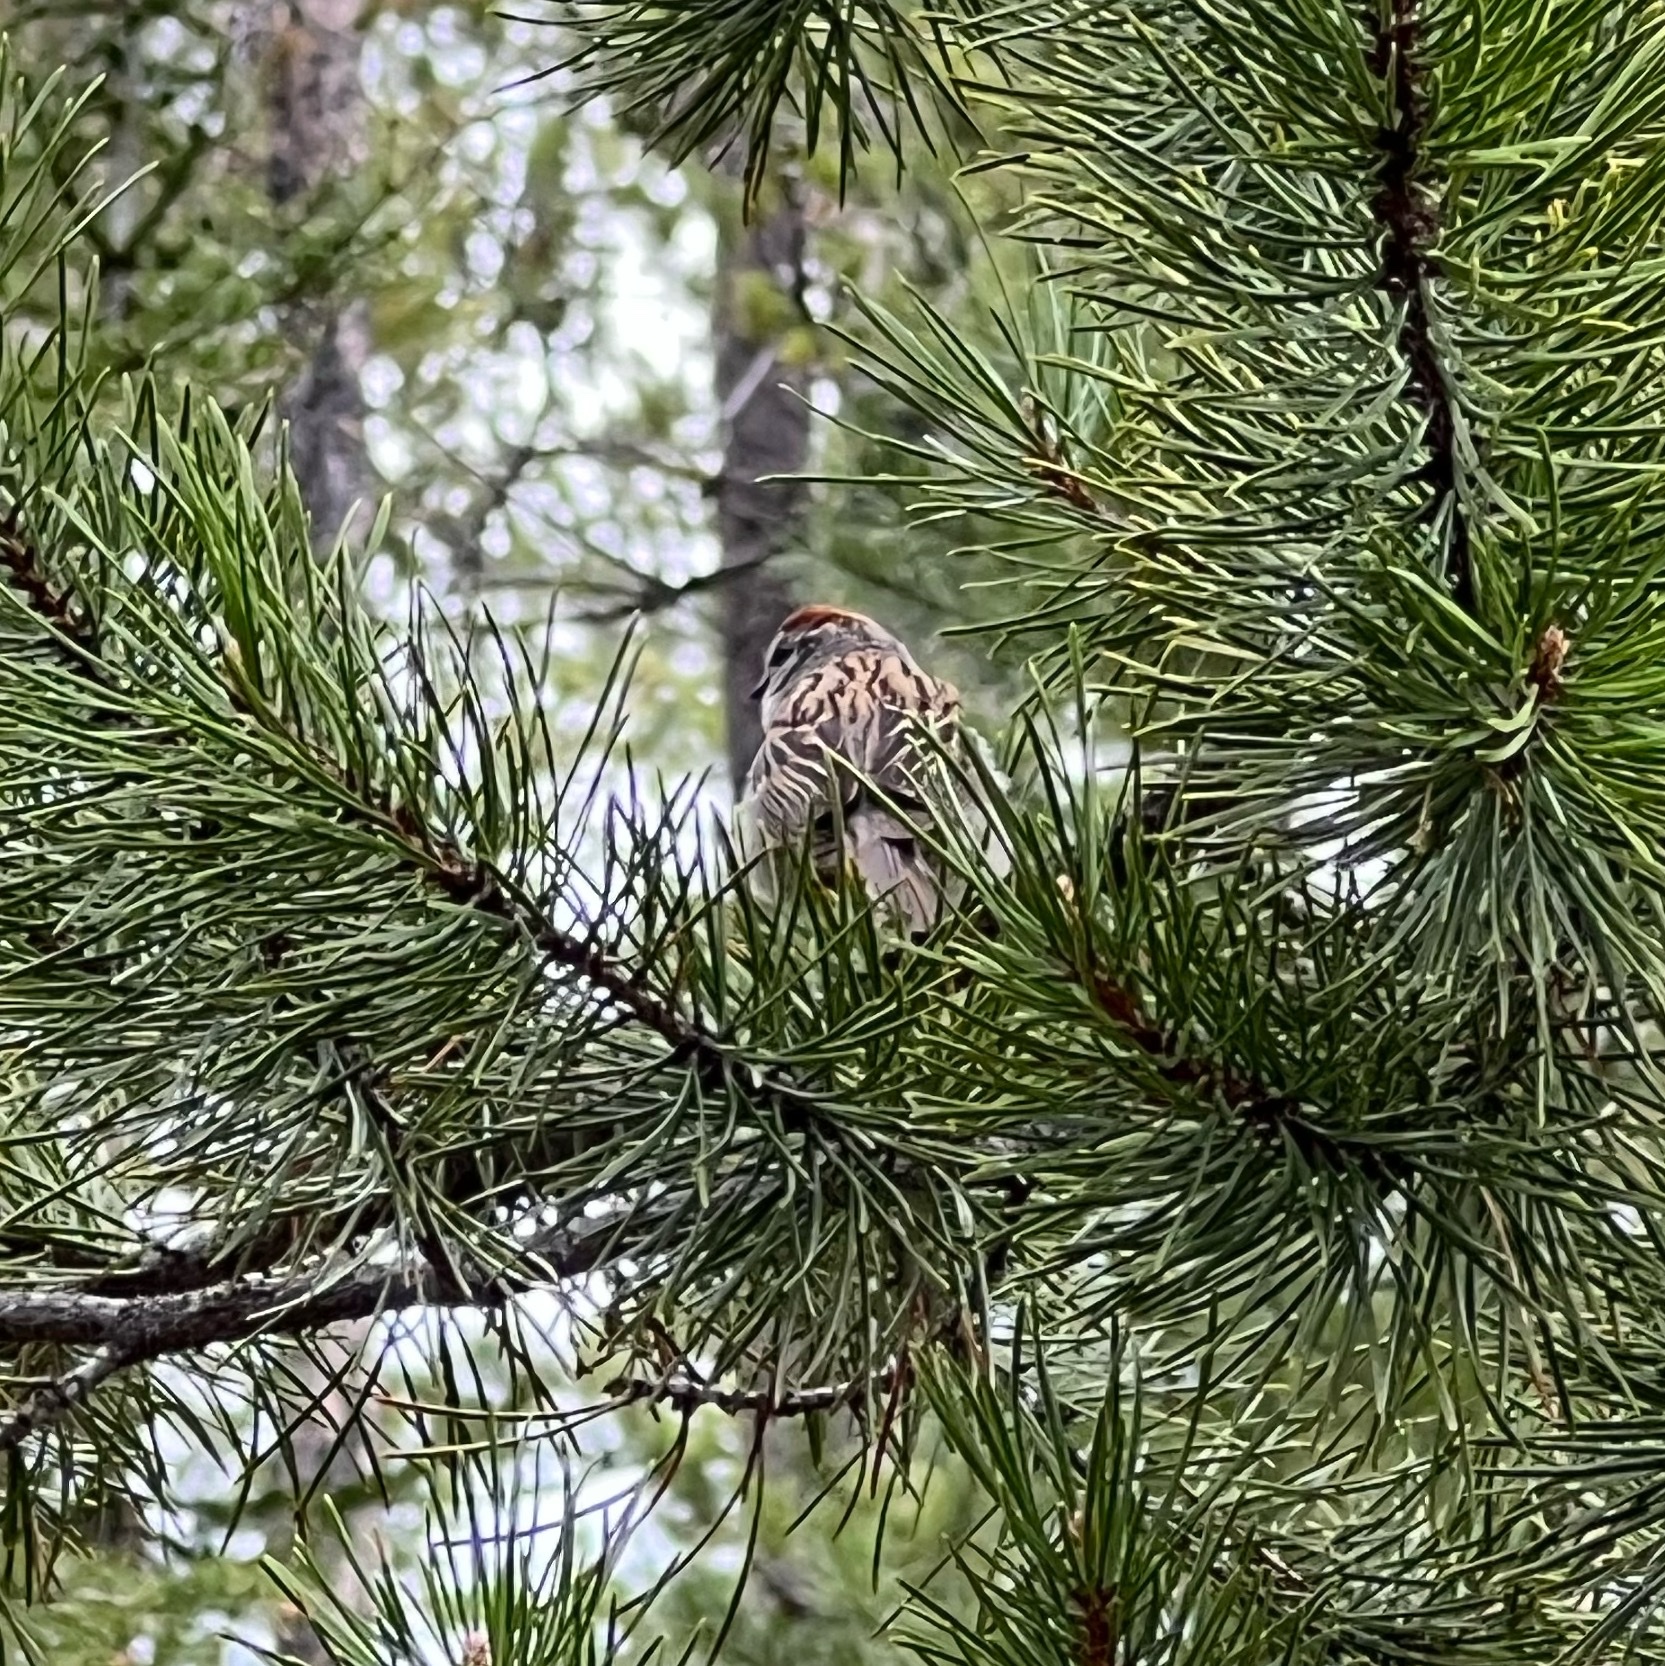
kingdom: Animalia
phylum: Chordata
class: Aves
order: Passeriformes
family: Passerellidae
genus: Spizella
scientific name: Spizella passerina
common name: Chipping sparrow
